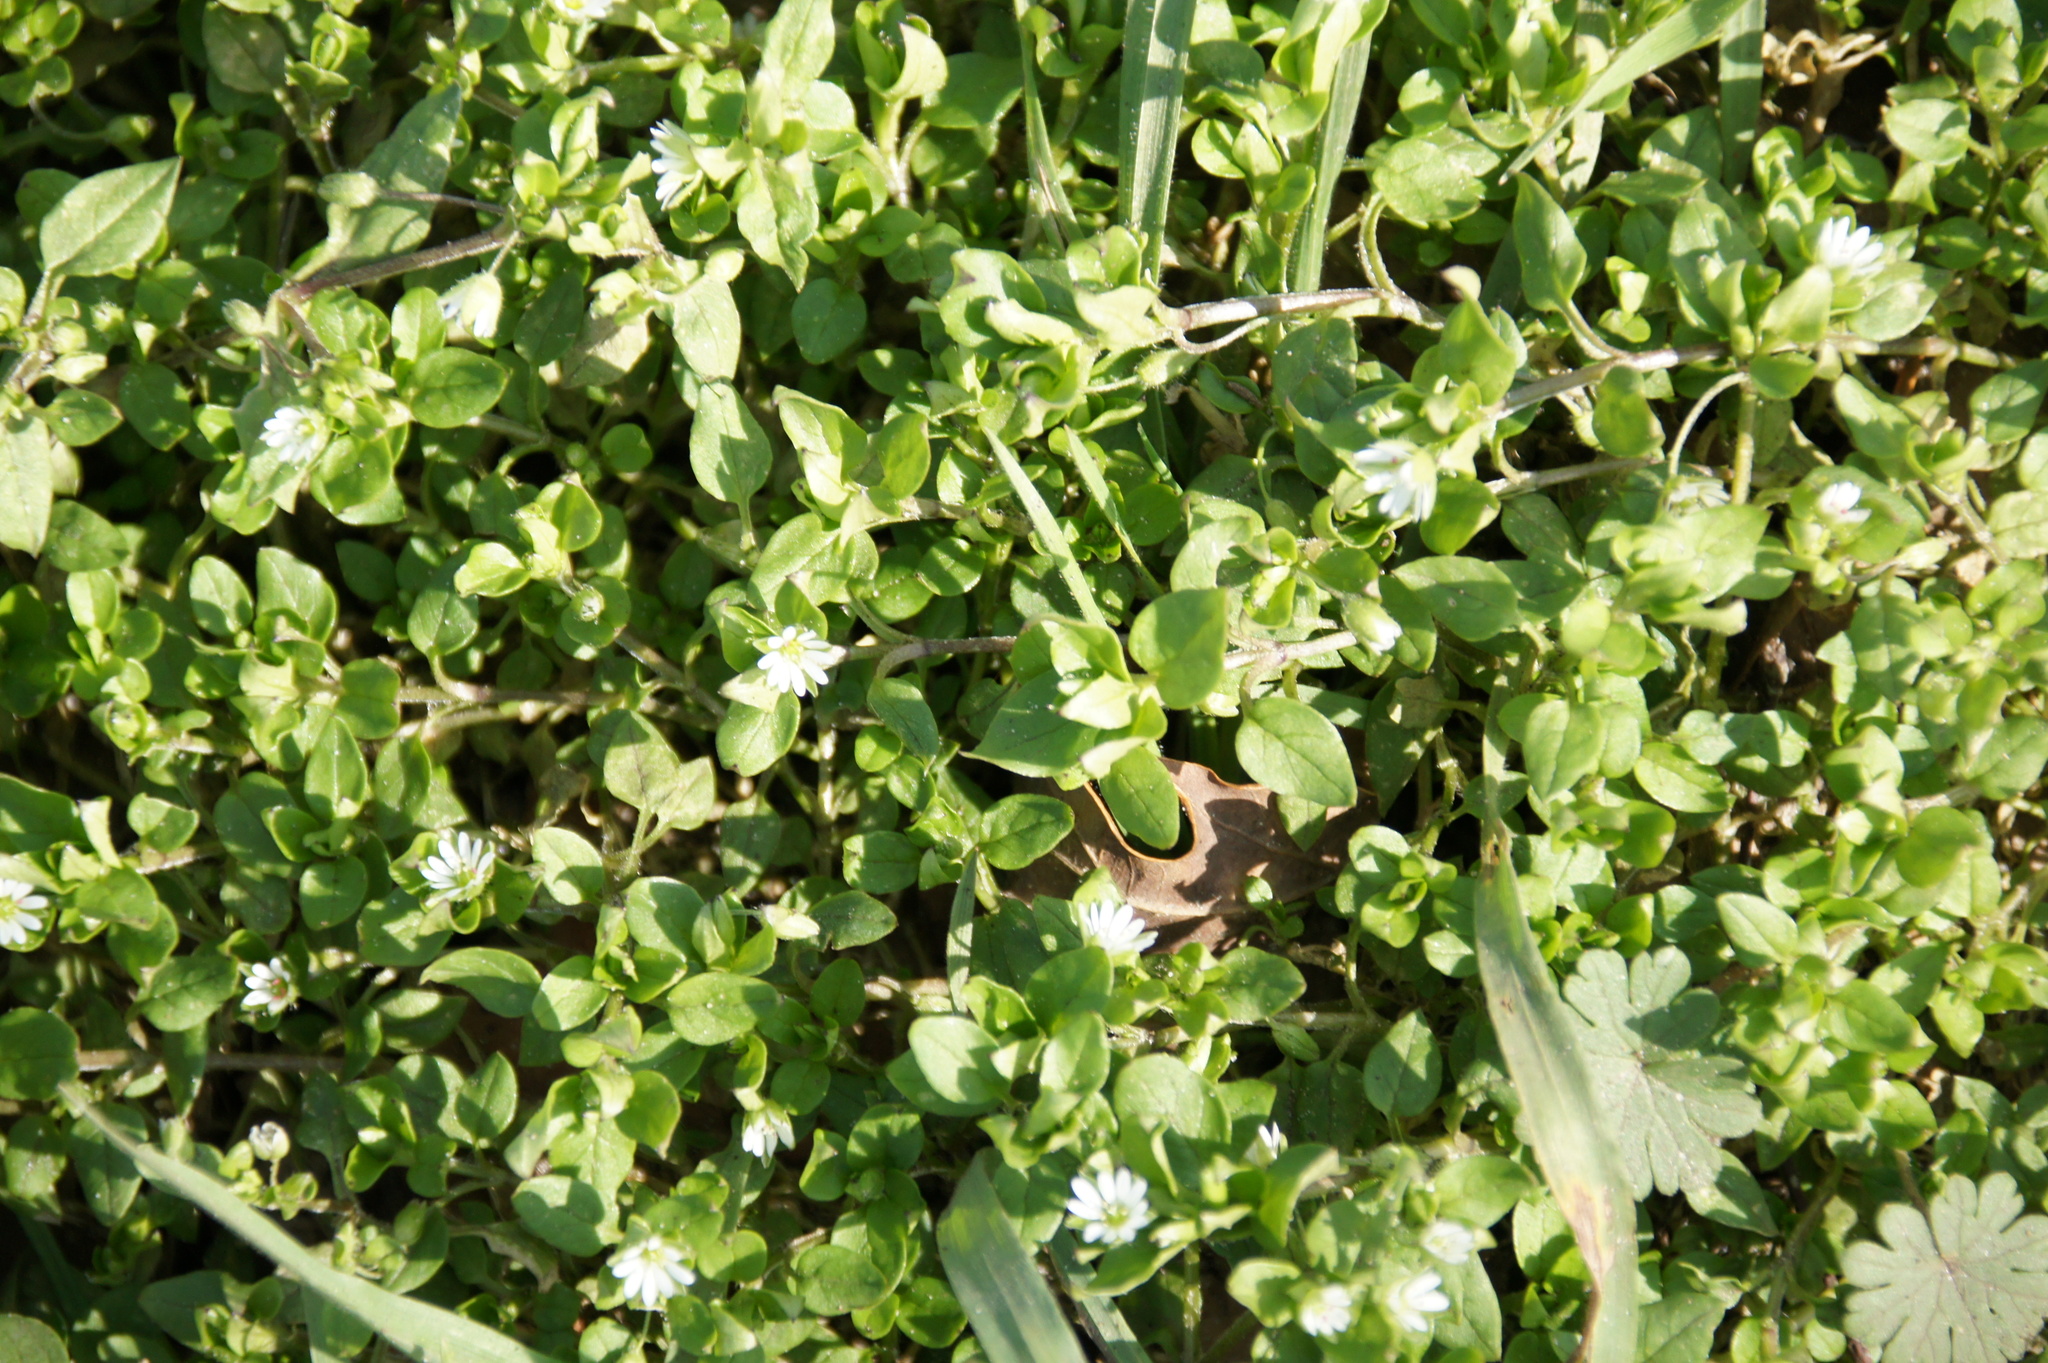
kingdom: Plantae
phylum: Tracheophyta
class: Magnoliopsida
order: Caryophyllales
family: Caryophyllaceae
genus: Stellaria
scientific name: Stellaria media
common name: Common chickweed
